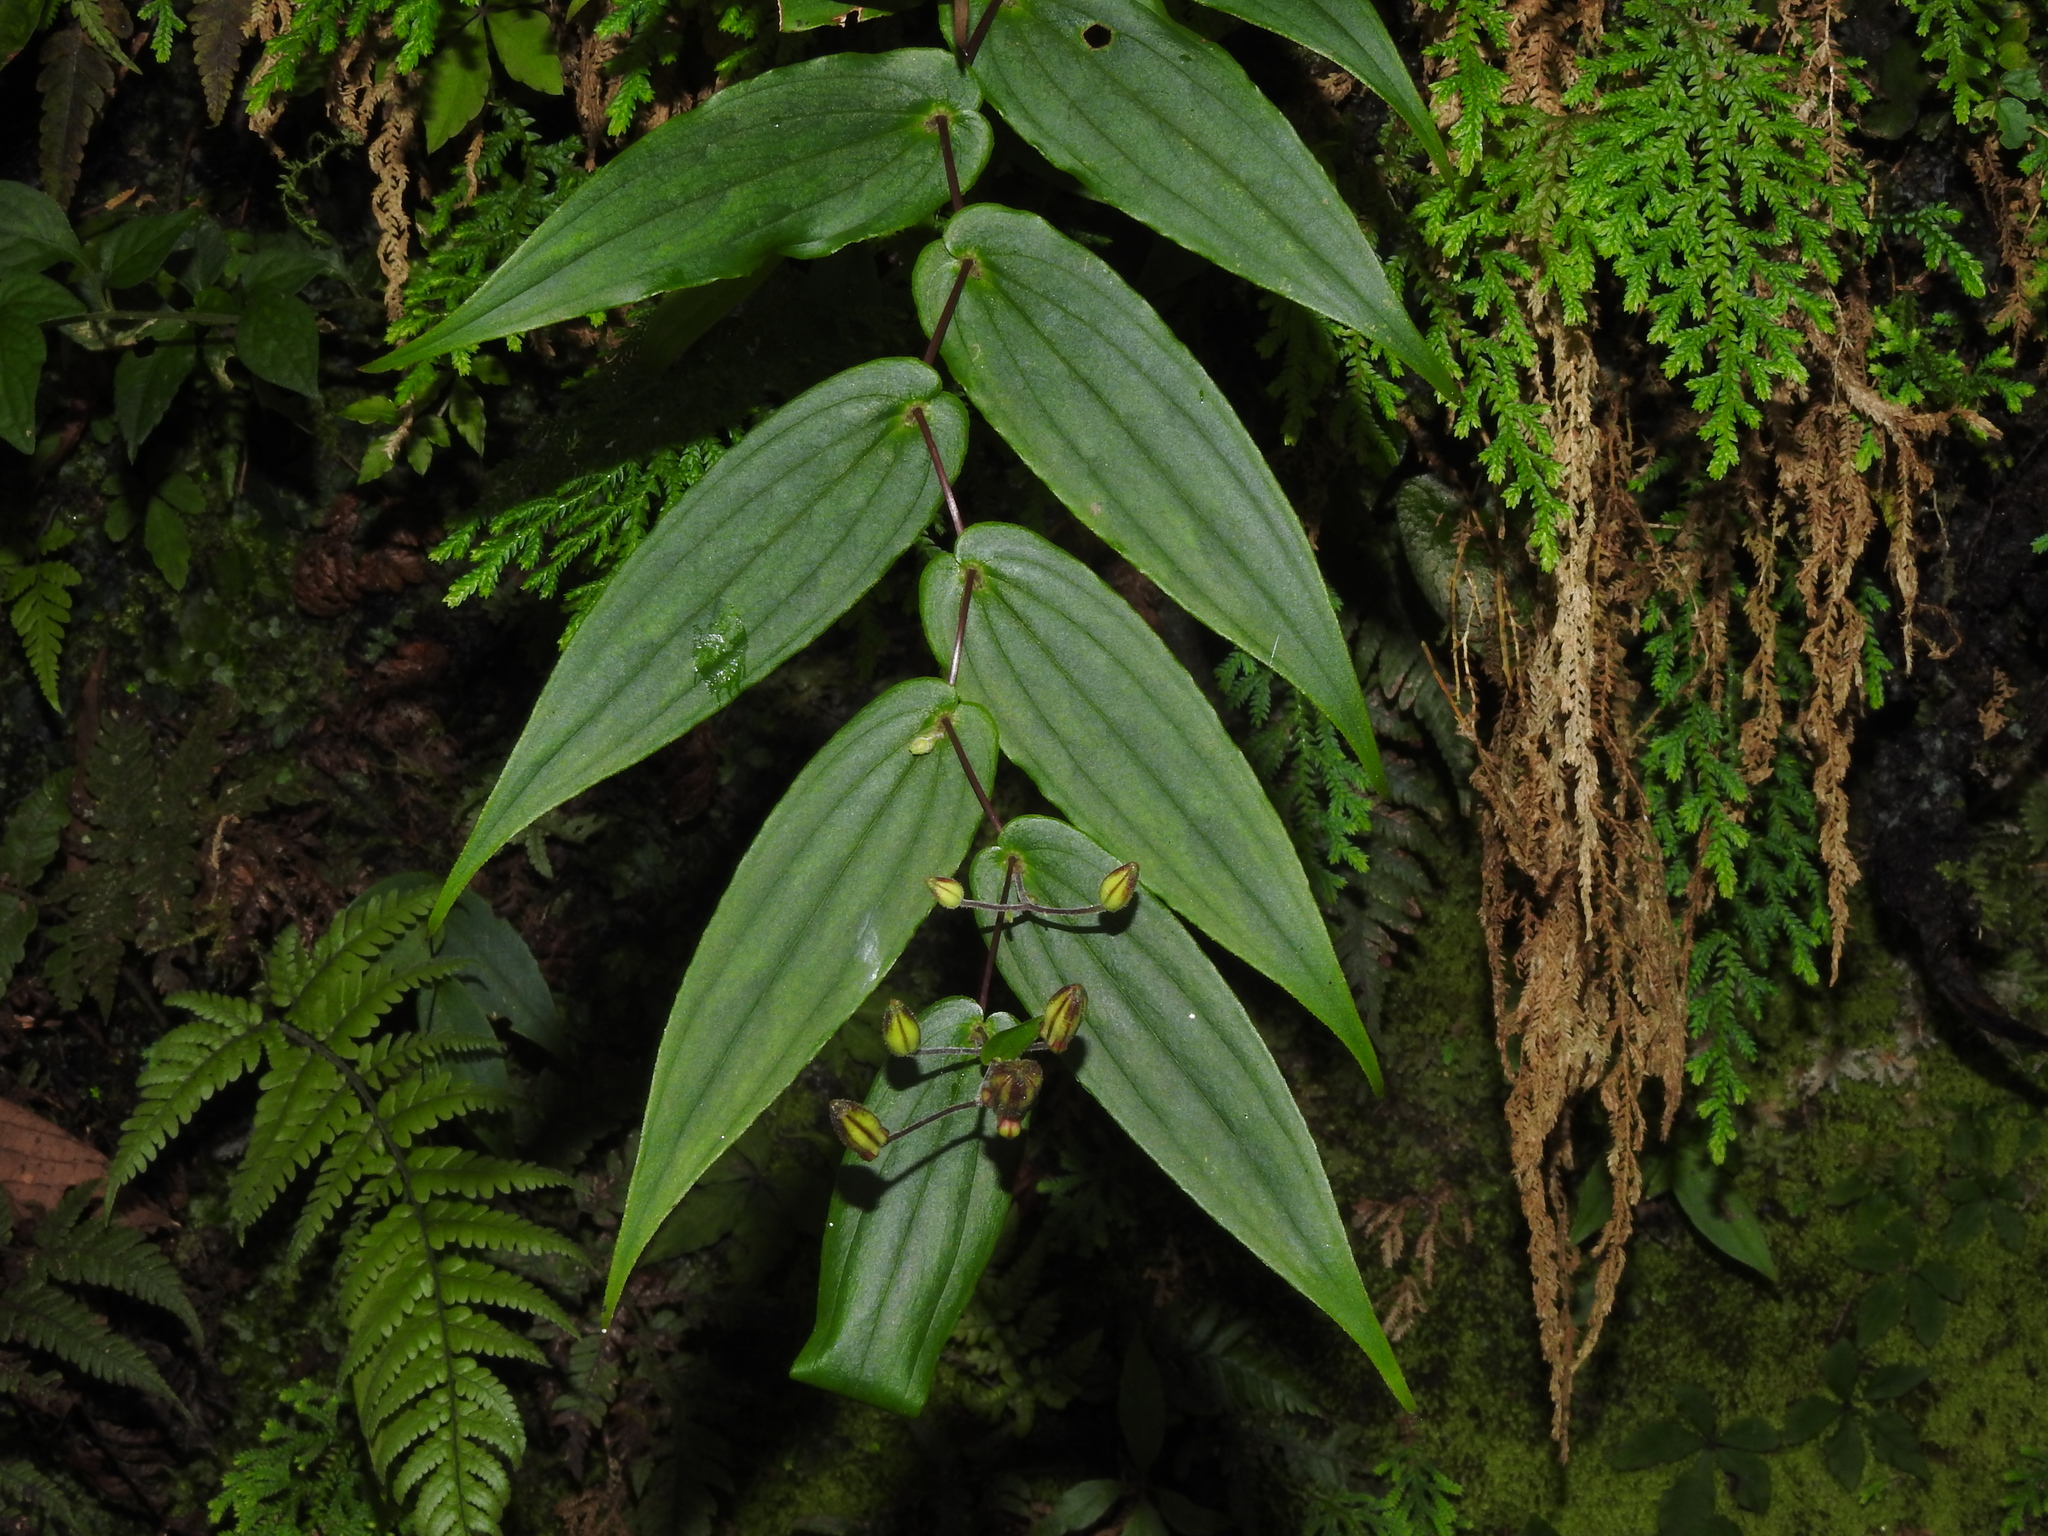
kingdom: Plantae
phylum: Tracheophyta
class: Liliopsida
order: Liliales
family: Liliaceae
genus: Tricyrtis
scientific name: Tricyrtis suzukii
